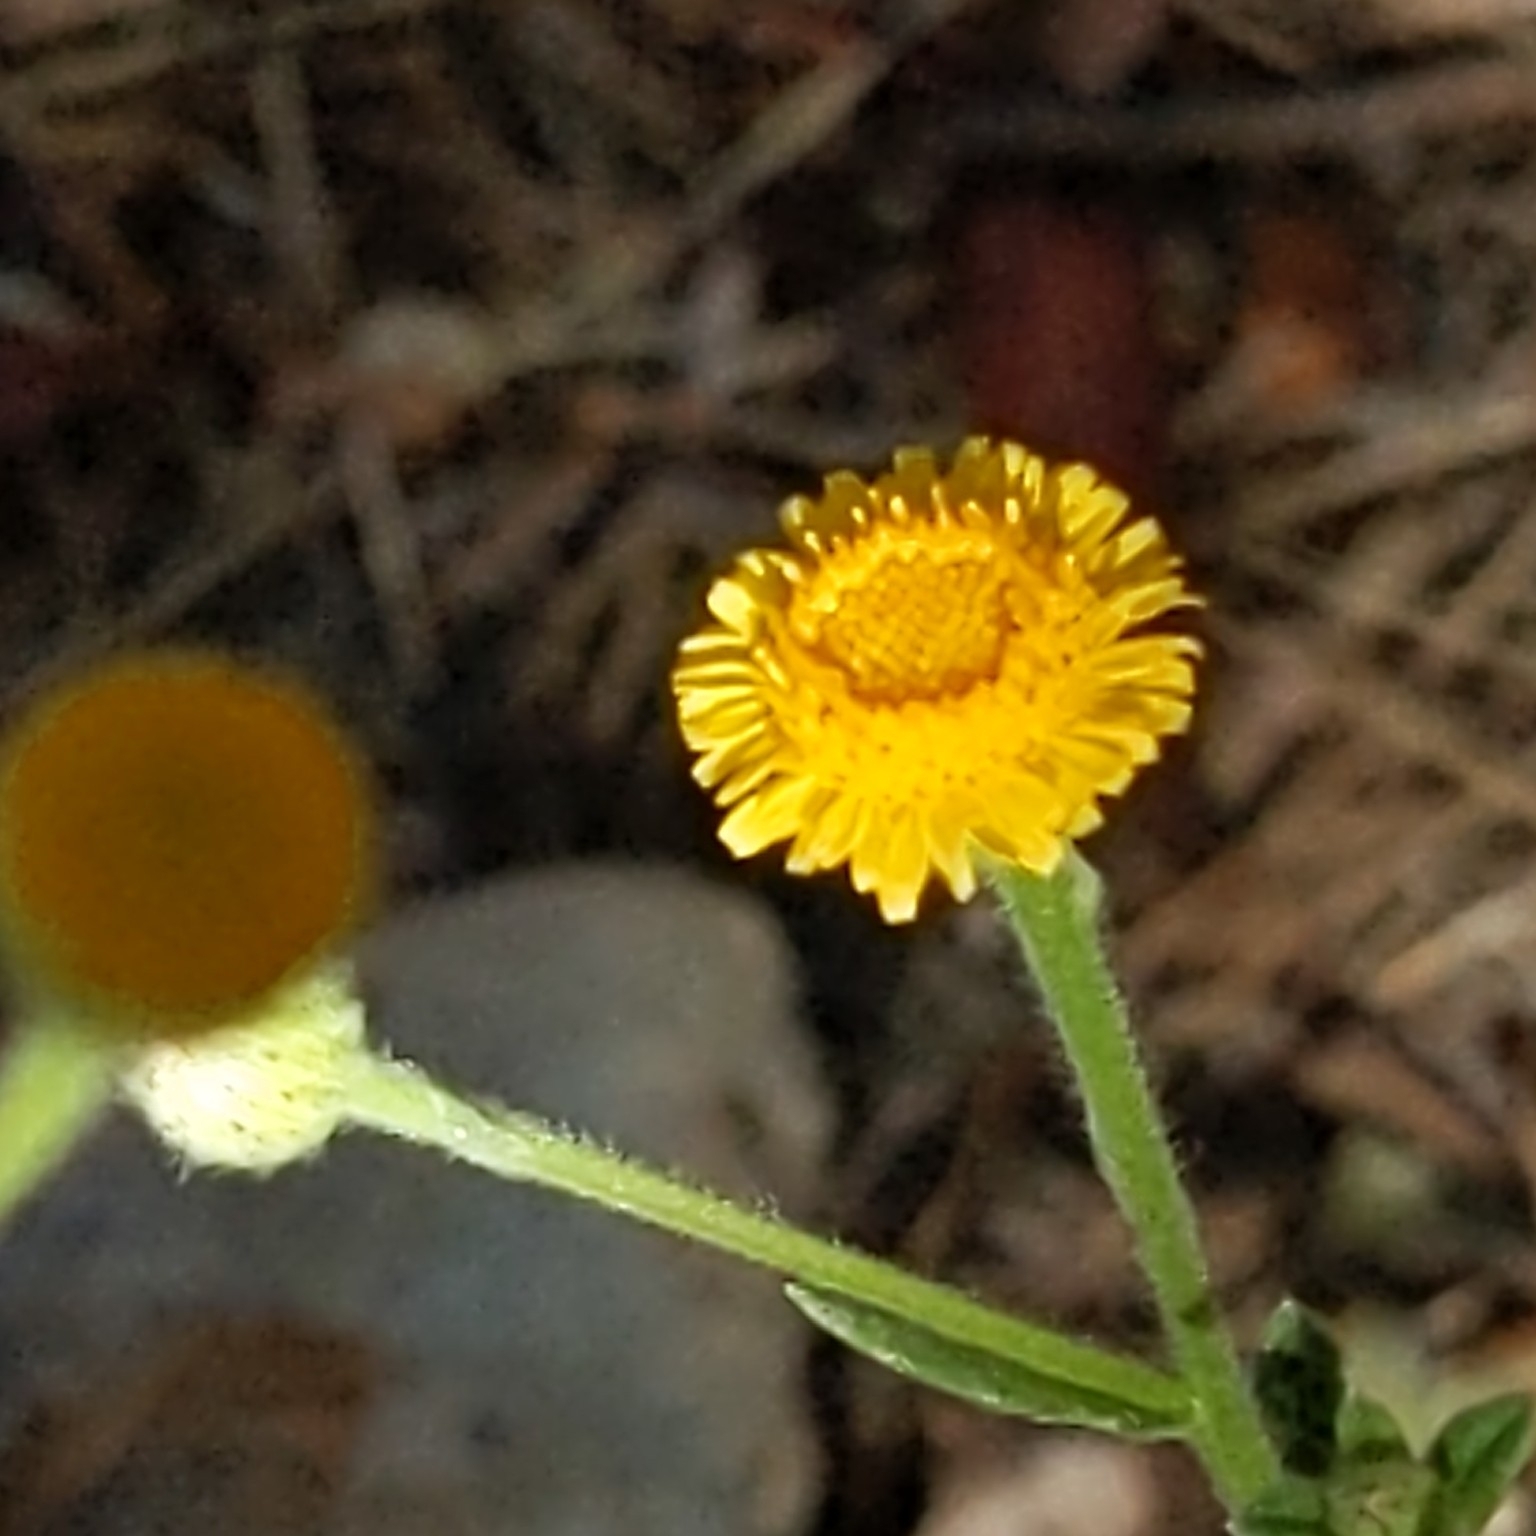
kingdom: Plantae
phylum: Tracheophyta
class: Magnoliopsida
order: Asterales
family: Asteraceae
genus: Pulicaria
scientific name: Pulicaria paludosa
